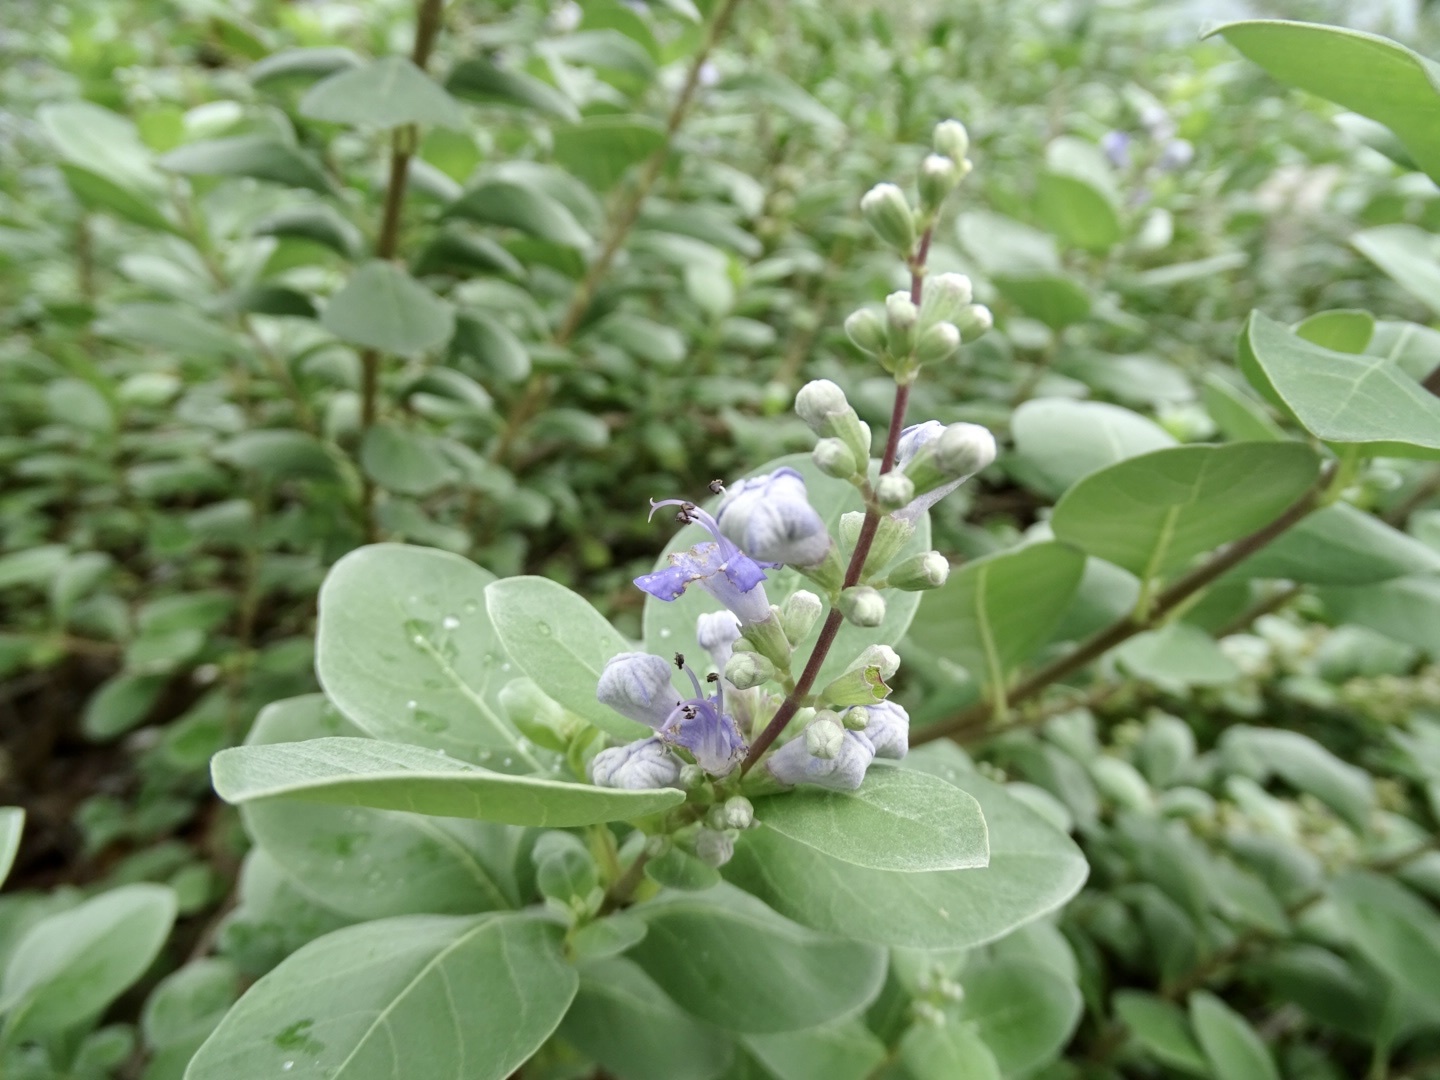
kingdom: Plantae
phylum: Tracheophyta
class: Magnoliopsida
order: Lamiales
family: Lamiaceae
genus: Vitex
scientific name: Vitex rotundifolia
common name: Beach vitex
